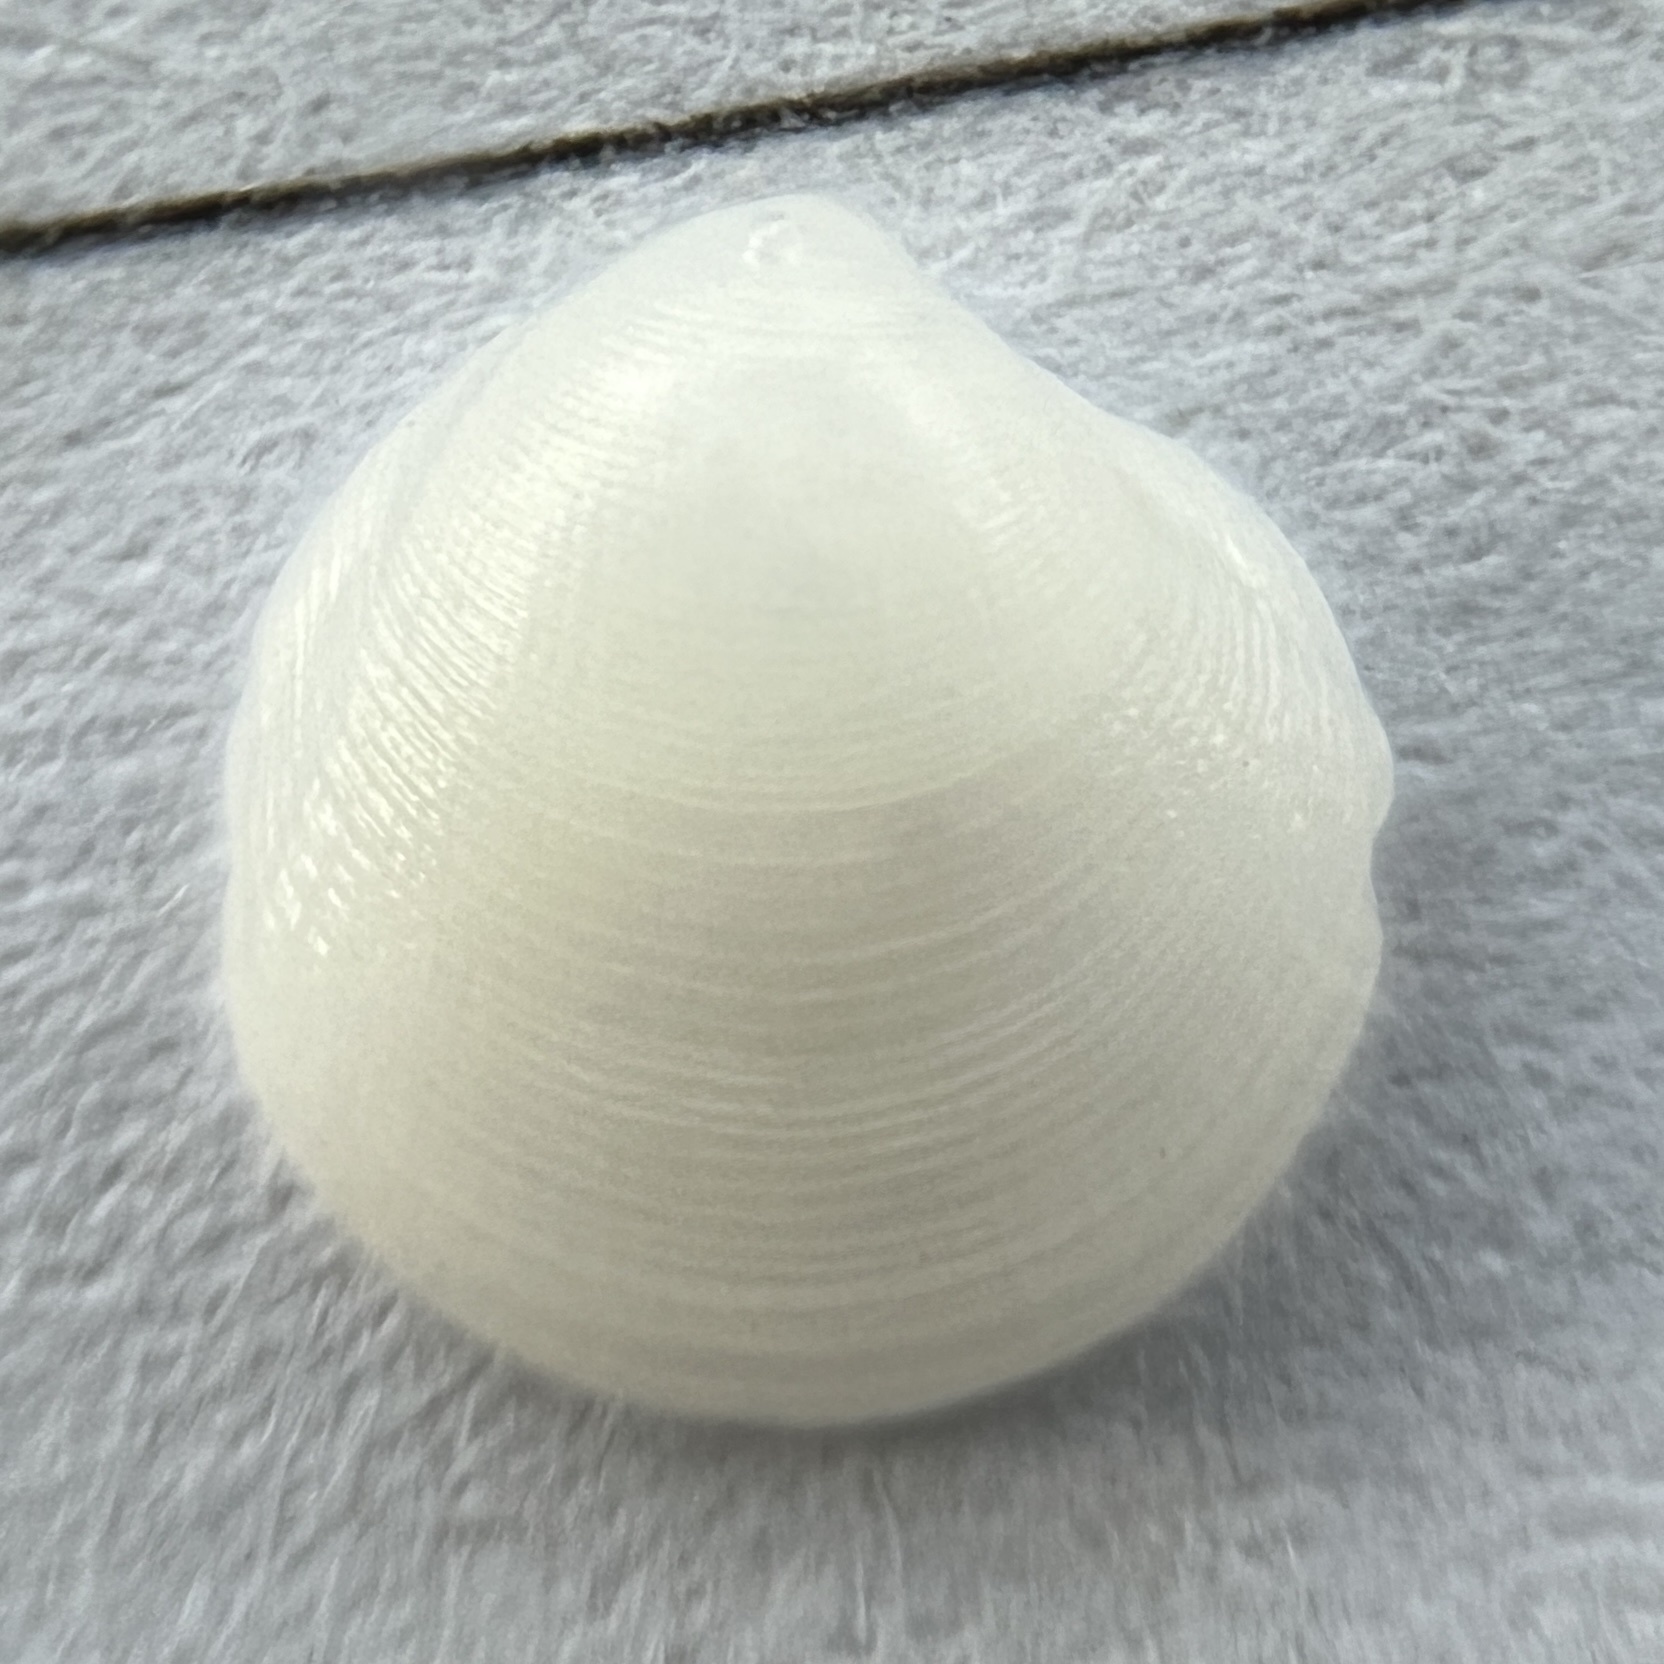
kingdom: Animalia
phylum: Mollusca
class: Bivalvia
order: Lucinida
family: Lucinidae
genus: Parvilucina
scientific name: Parvilucina crenella
